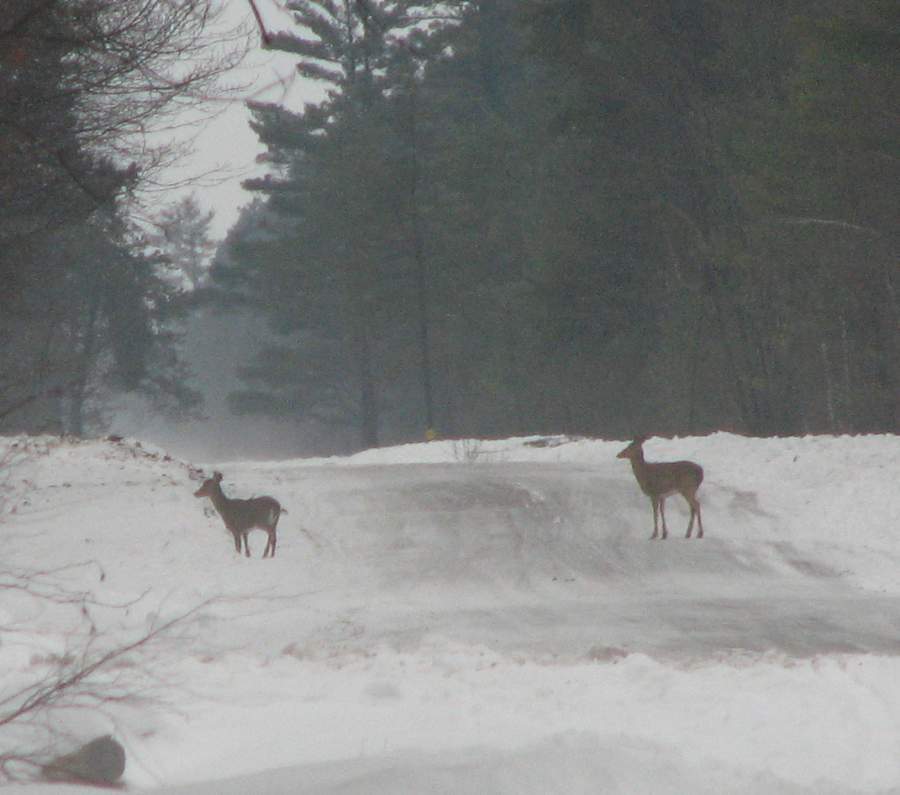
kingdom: Animalia
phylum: Chordata
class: Mammalia
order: Artiodactyla
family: Cervidae
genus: Odocoileus
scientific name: Odocoileus virginianus
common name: White-tailed deer
